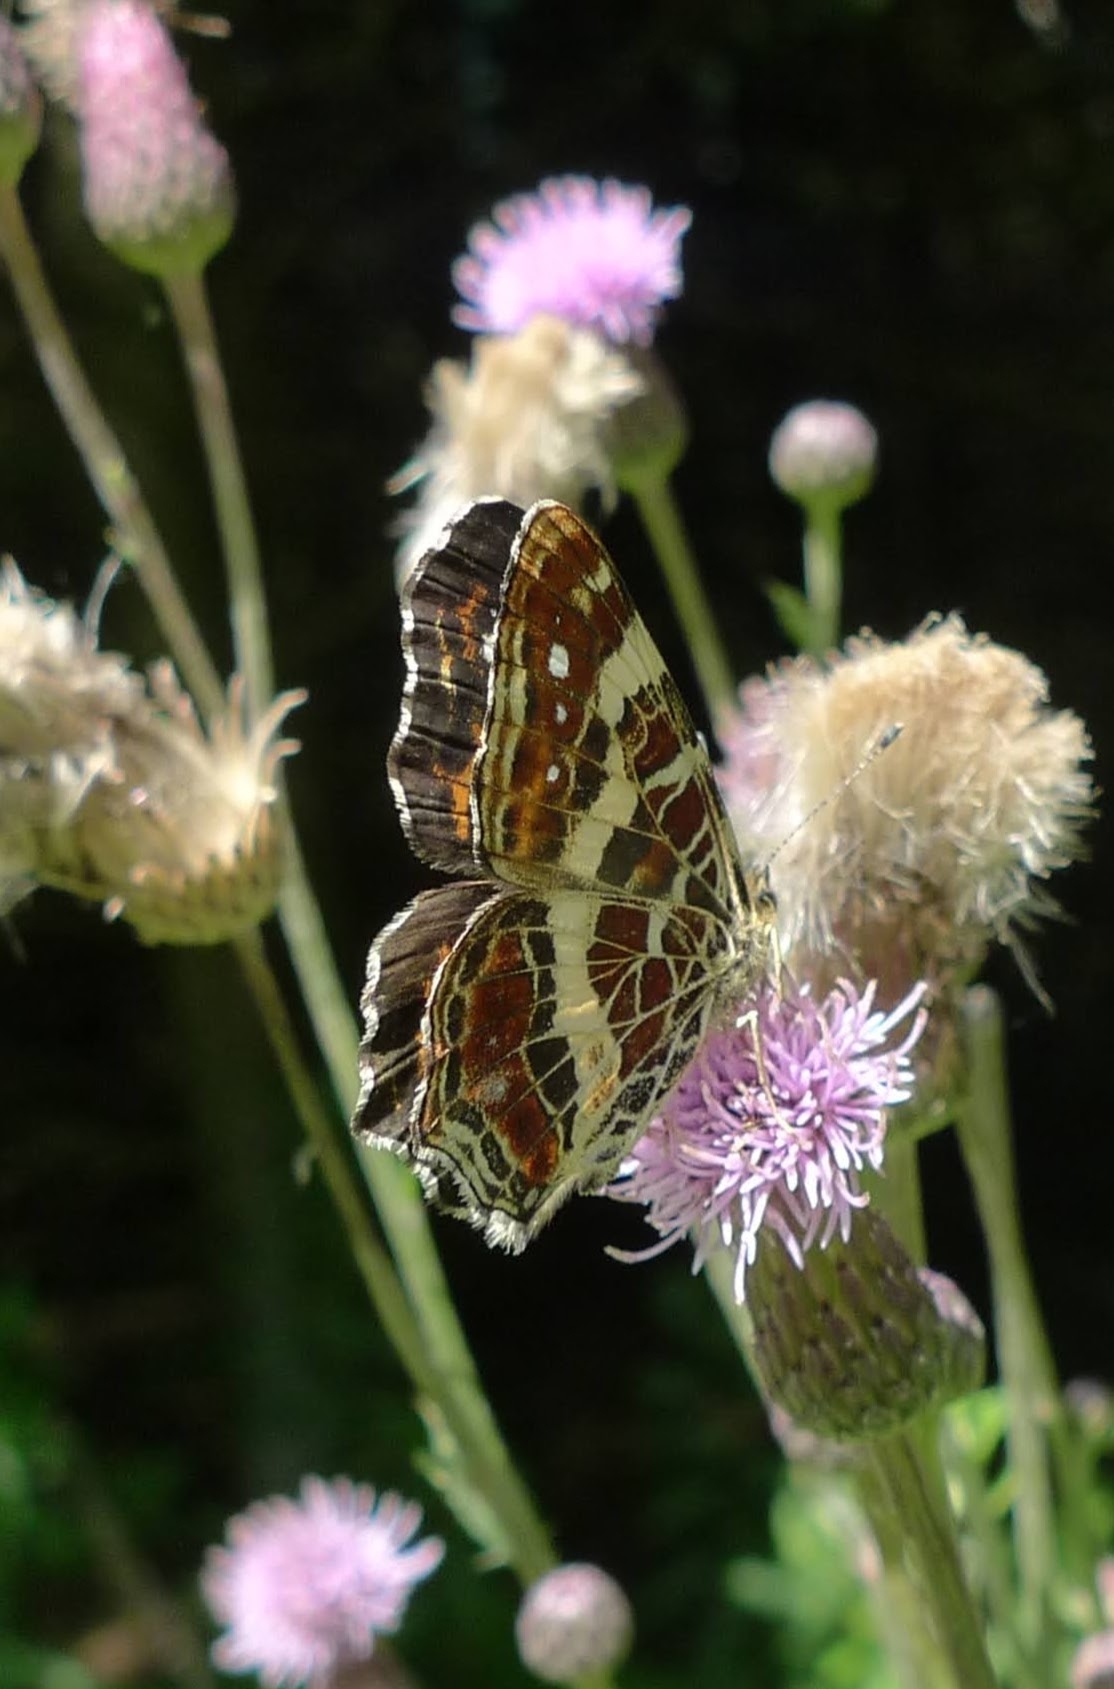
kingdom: Animalia
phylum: Arthropoda
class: Insecta
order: Lepidoptera
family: Nymphalidae
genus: Araschnia
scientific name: Araschnia levana
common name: Map butterfly
